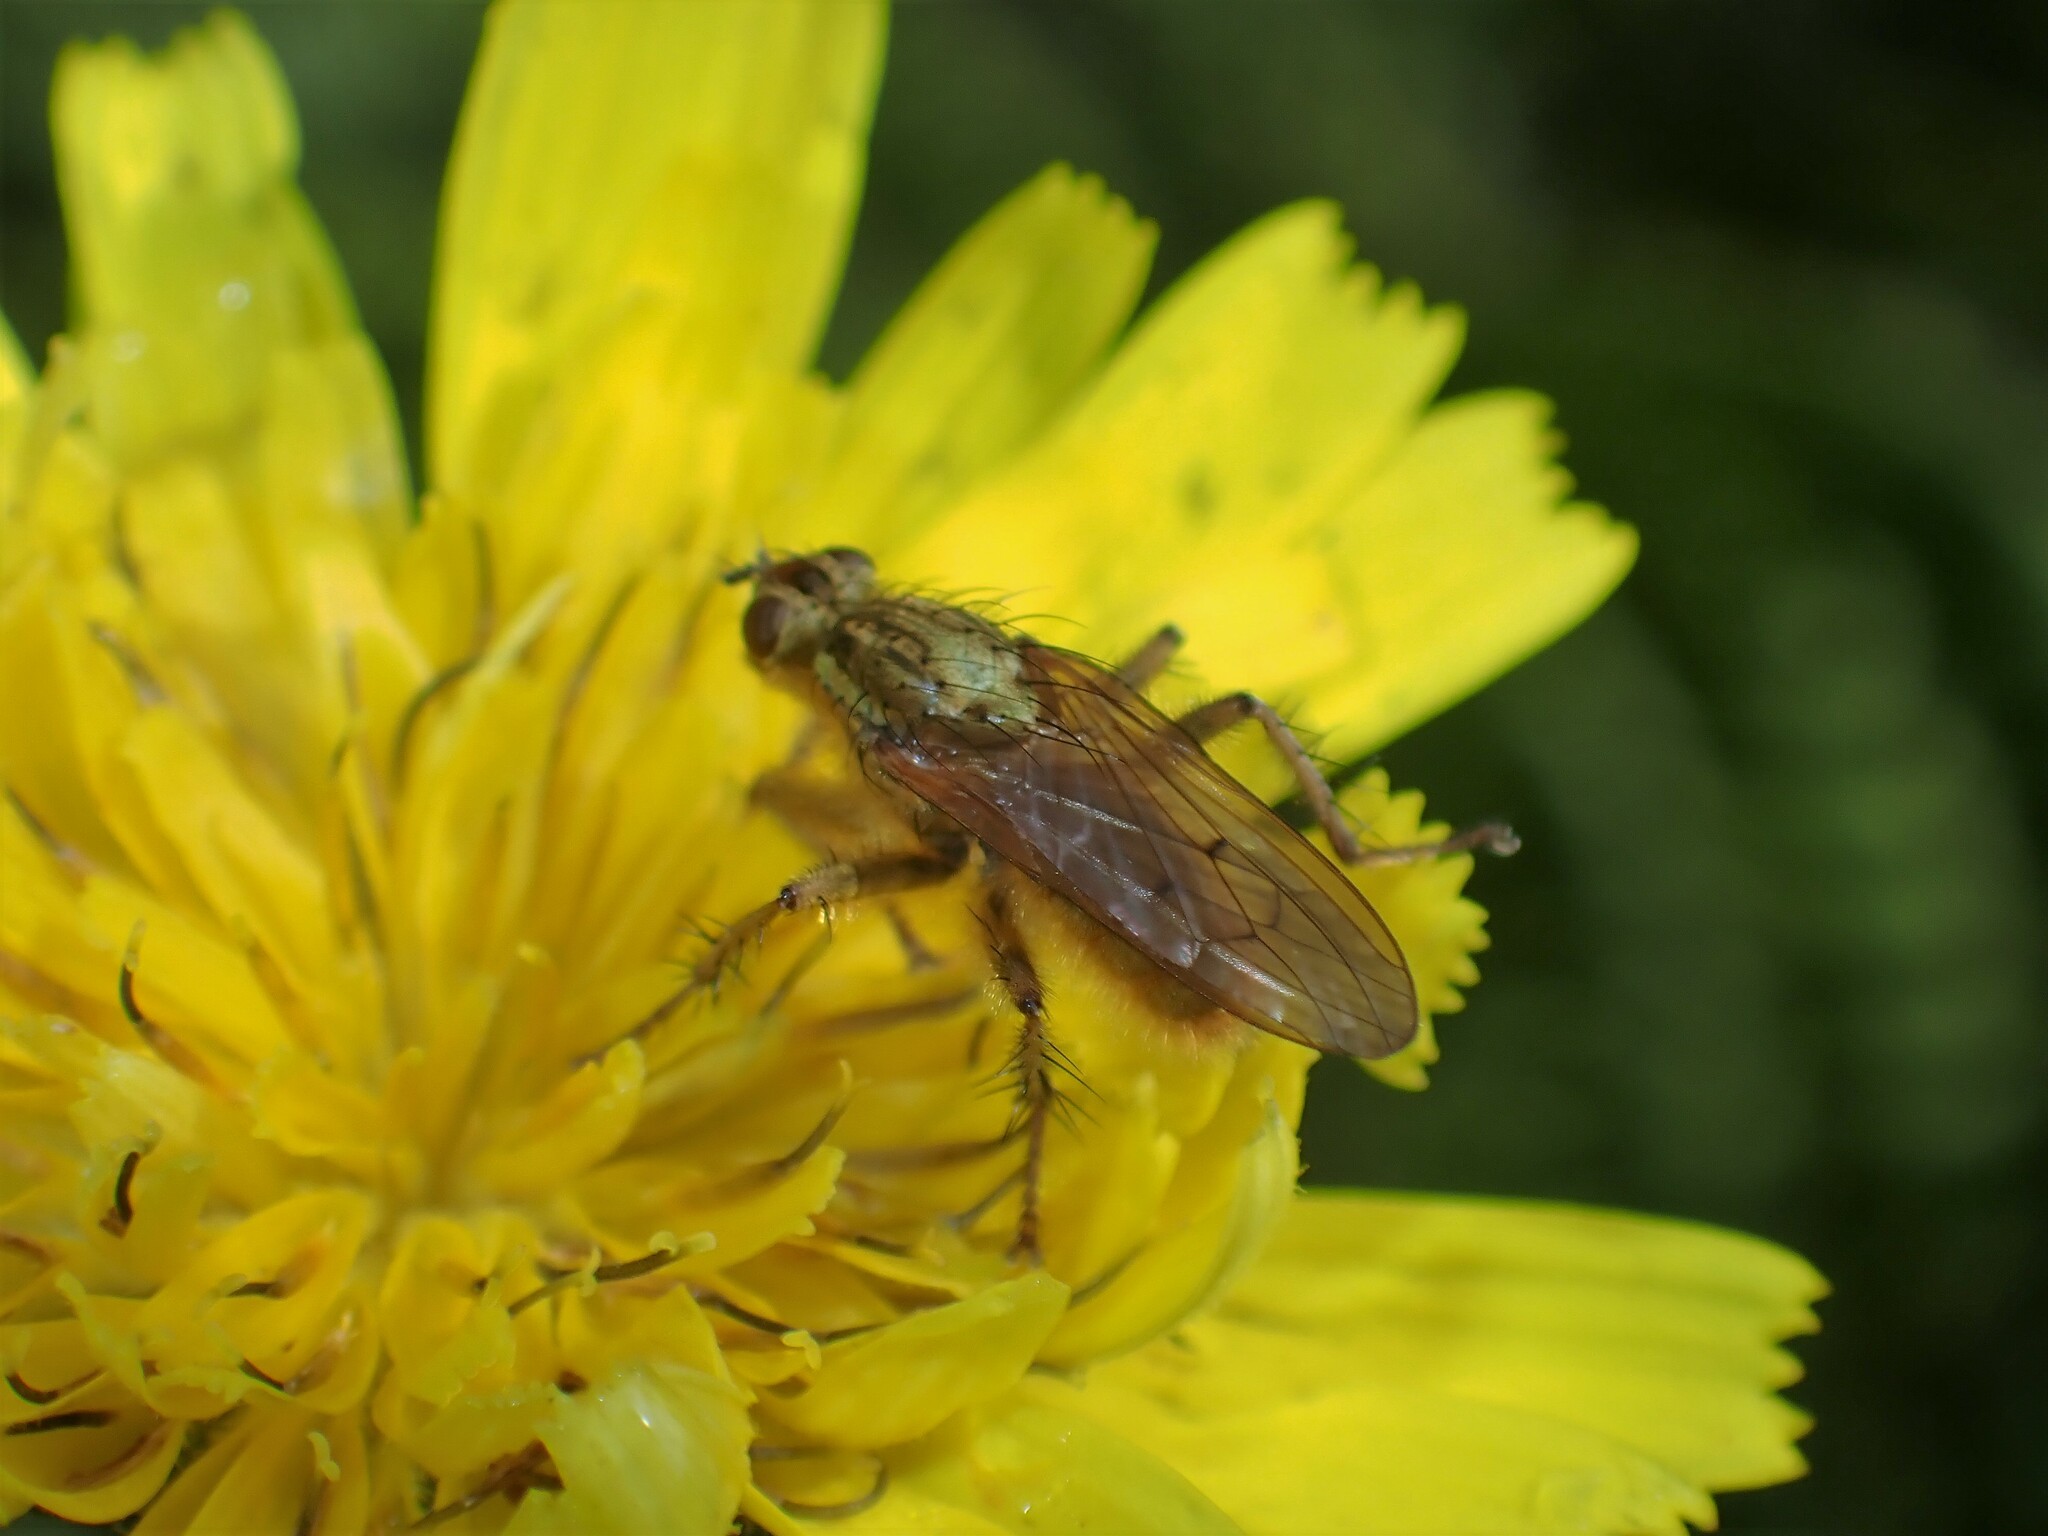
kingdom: Animalia
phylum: Arthropoda
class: Insecta
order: Diptera
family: Scathophagidae
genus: Scathophaga
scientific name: Scathophaga stercoraria
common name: Yellow dung fly
